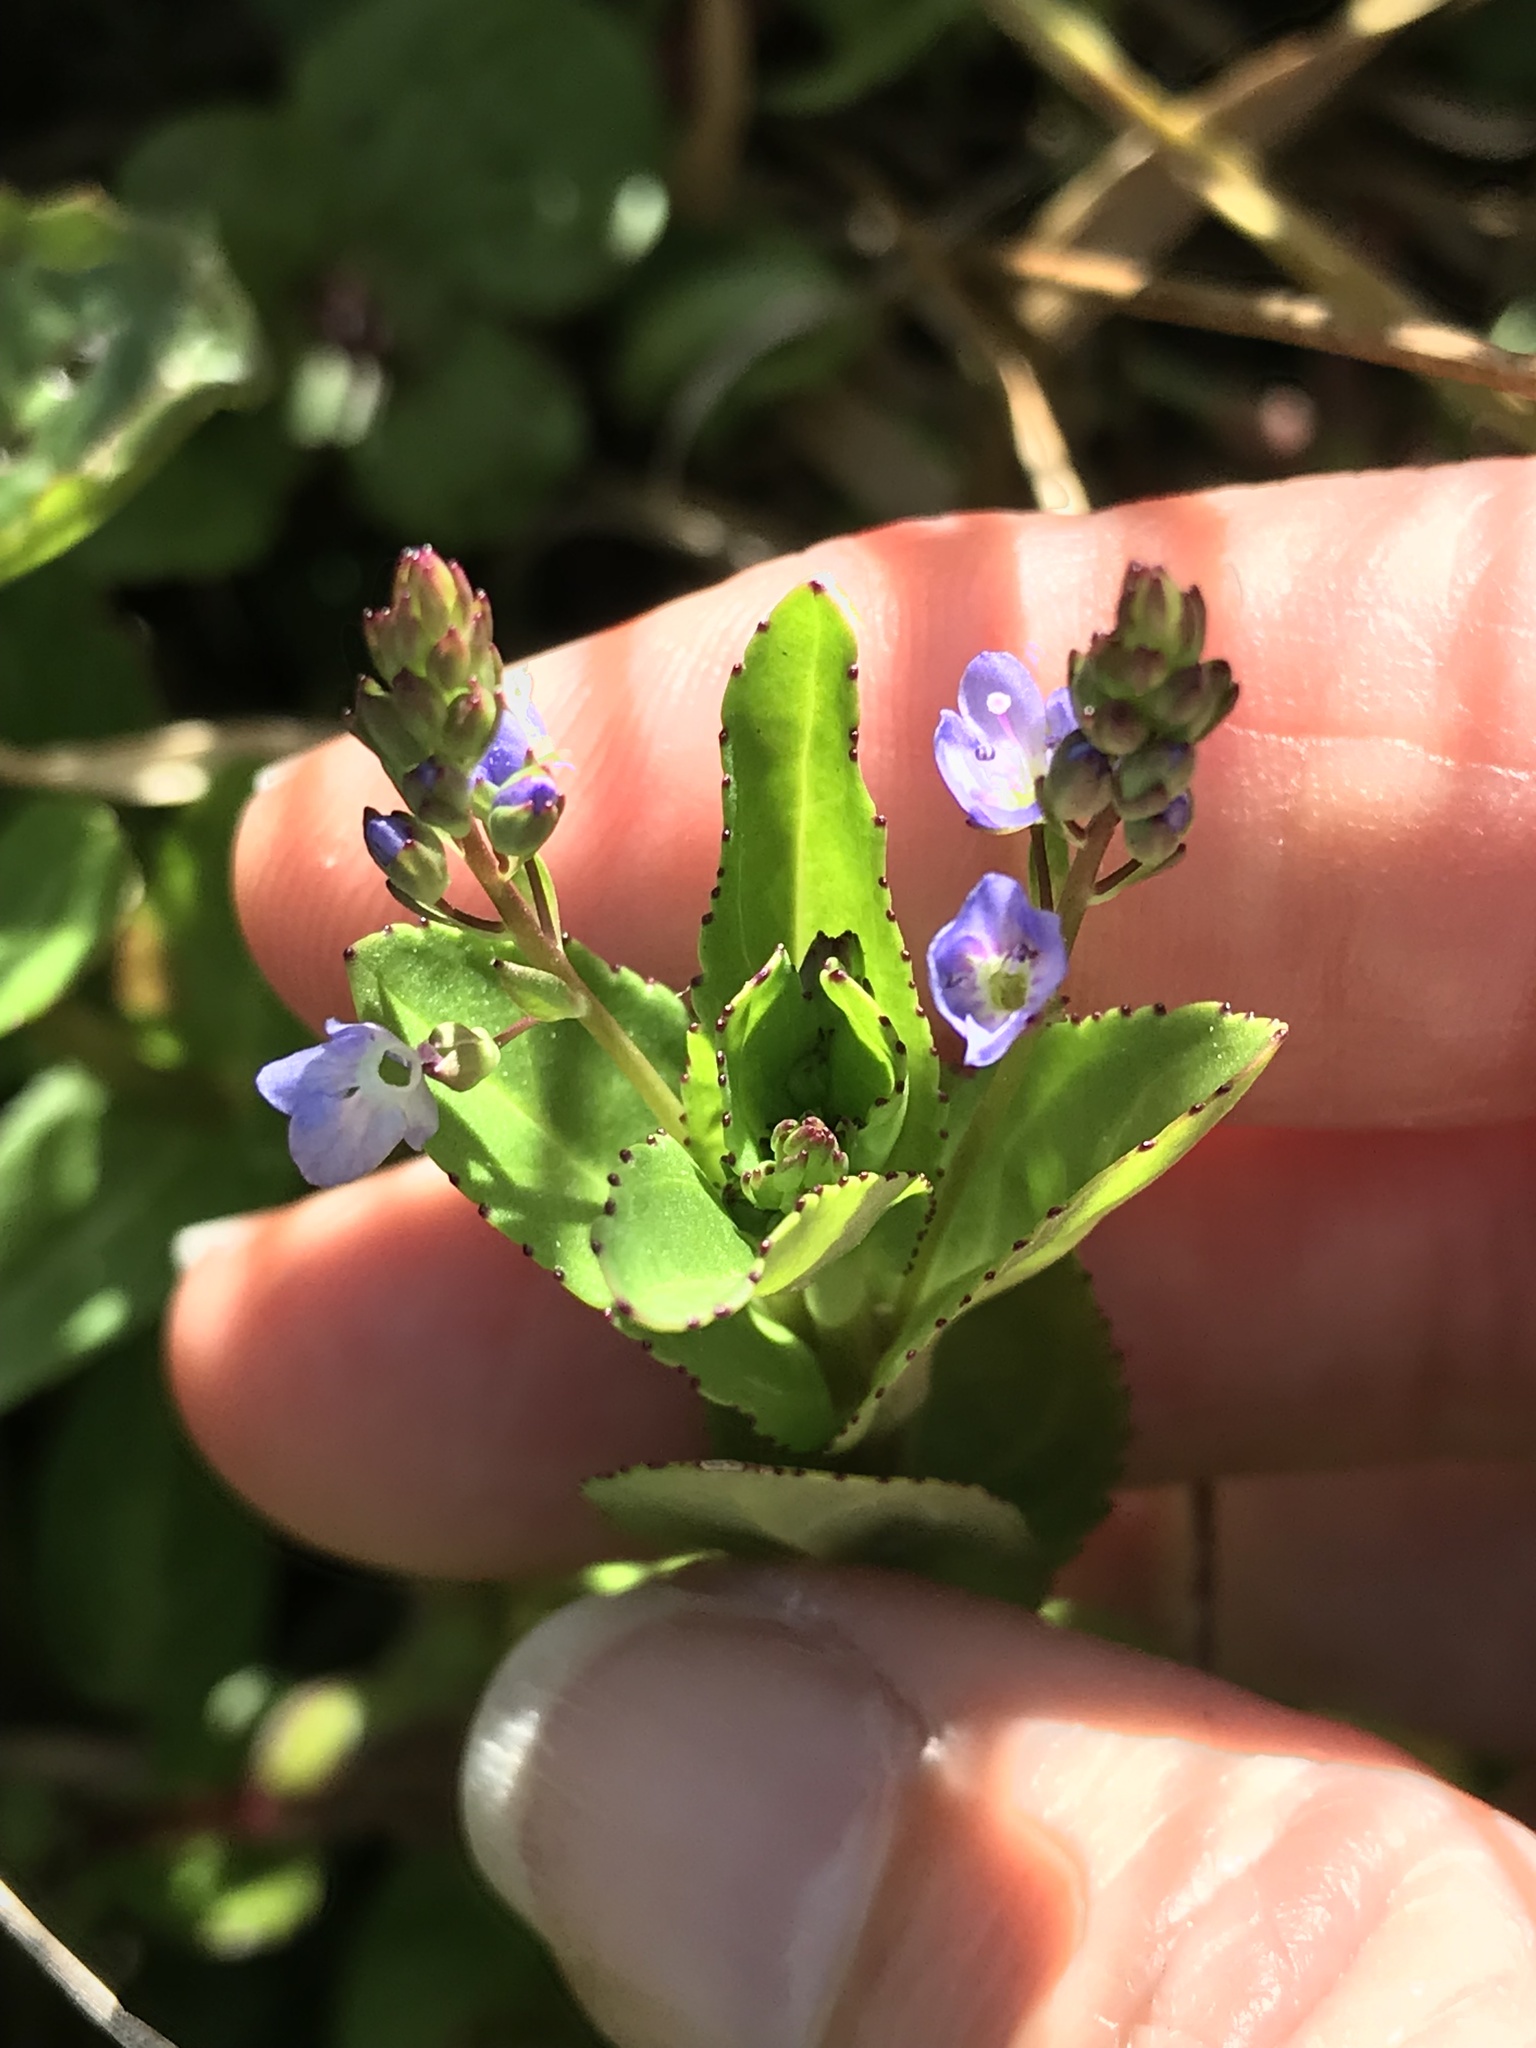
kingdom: Plantae
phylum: Tracheophyta
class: Magnoliopsida
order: Lamiales
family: Plantaginaceae
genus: Veronica
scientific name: Veronica americana
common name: American brooklime
